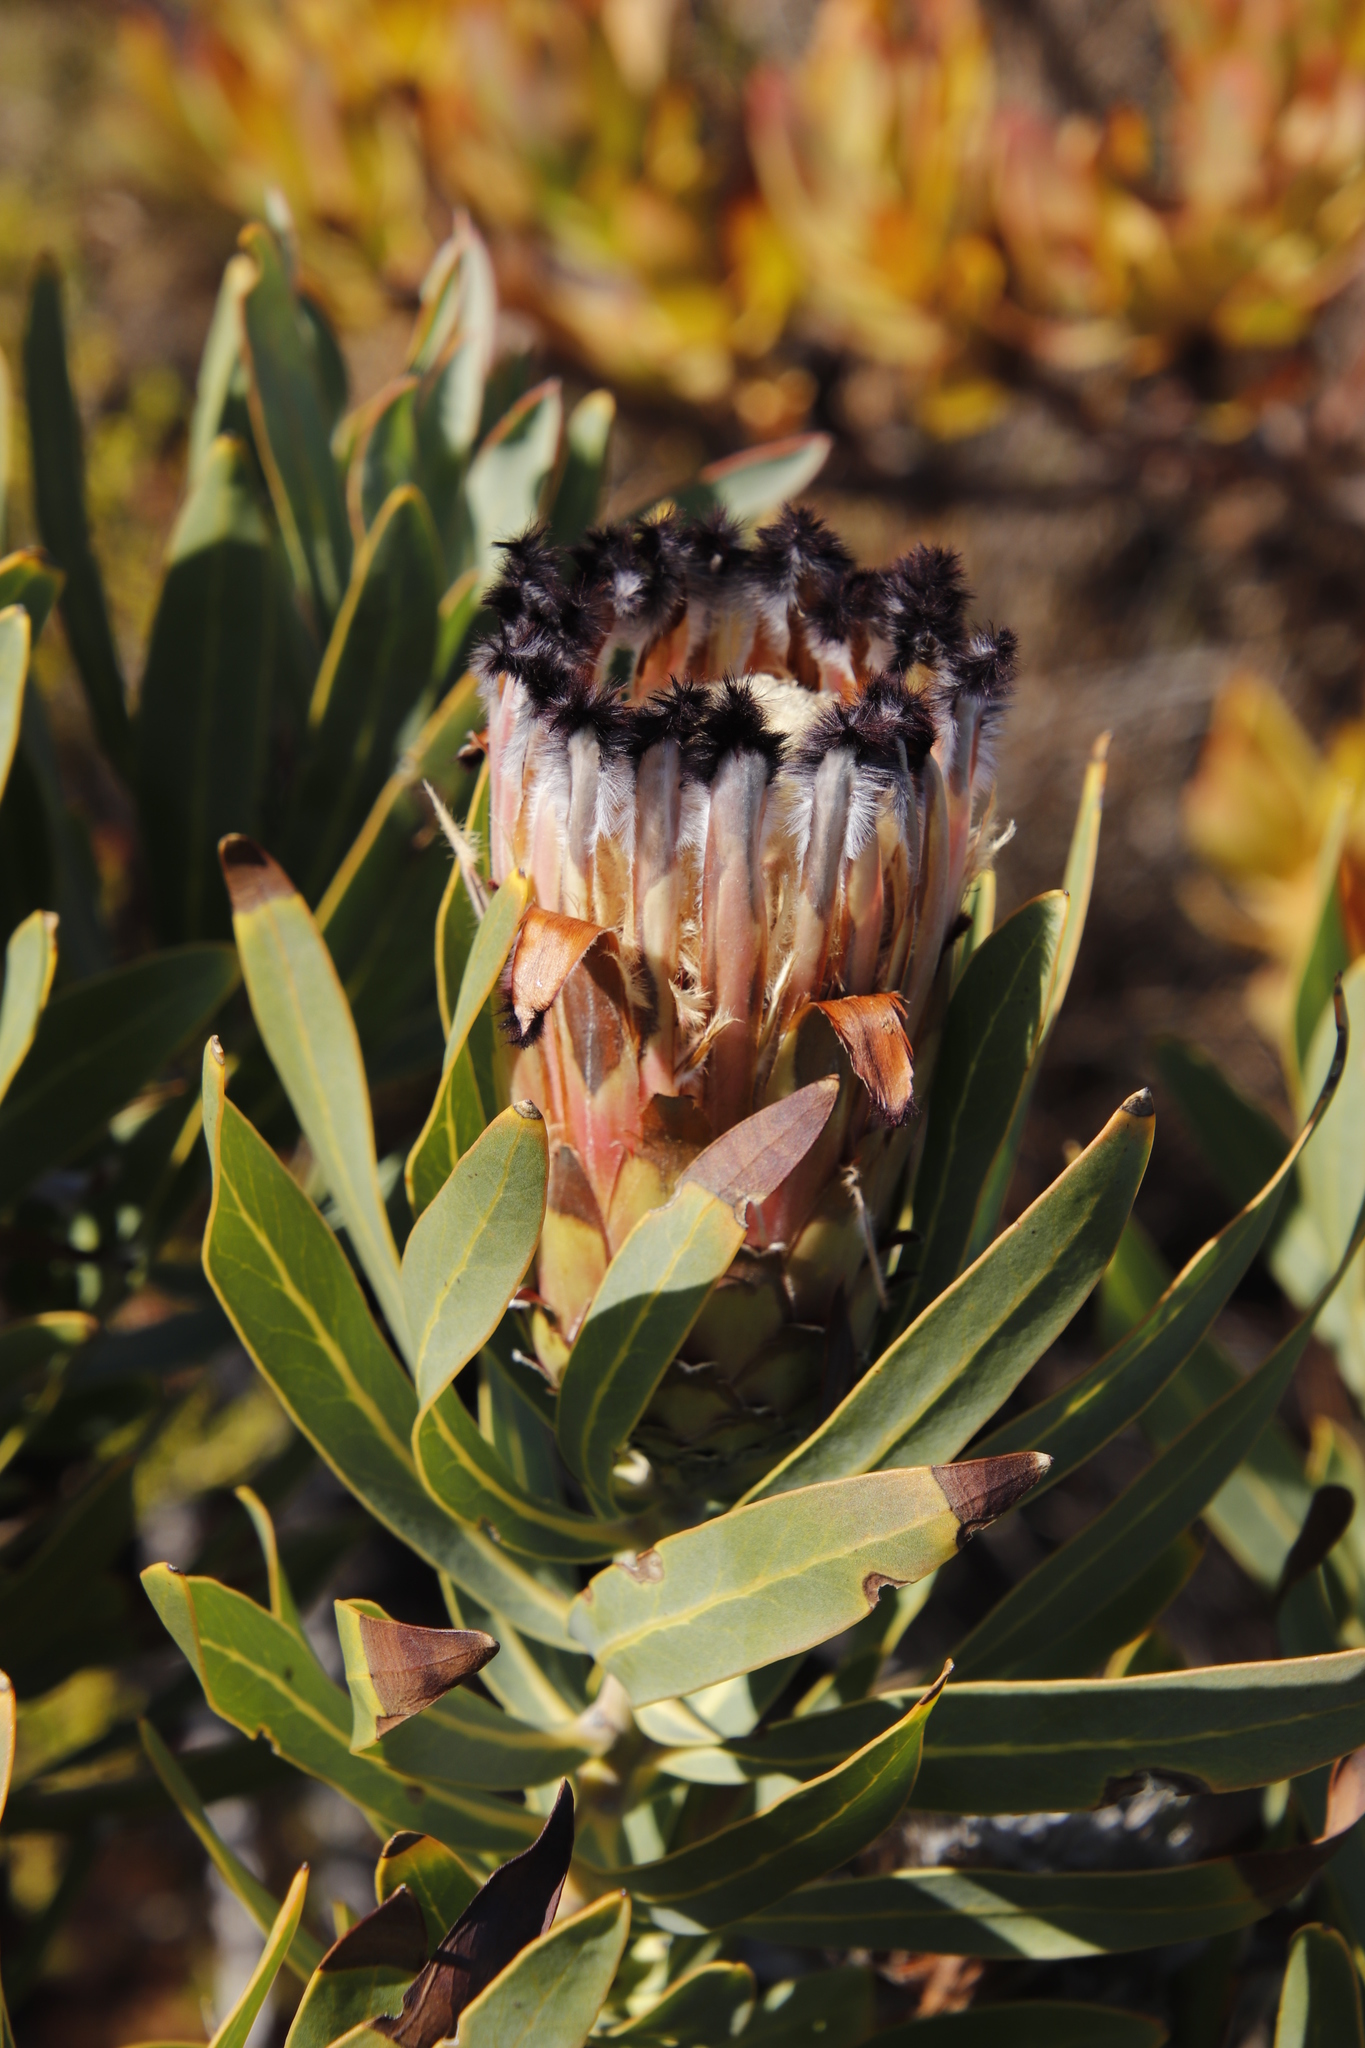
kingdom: Plantae
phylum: Tracheophyta
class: Magnoliopsida
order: Proteales
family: Proteaceae
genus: Protea
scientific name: Protea laurifolia
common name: Grey-leaf sugarbsh
